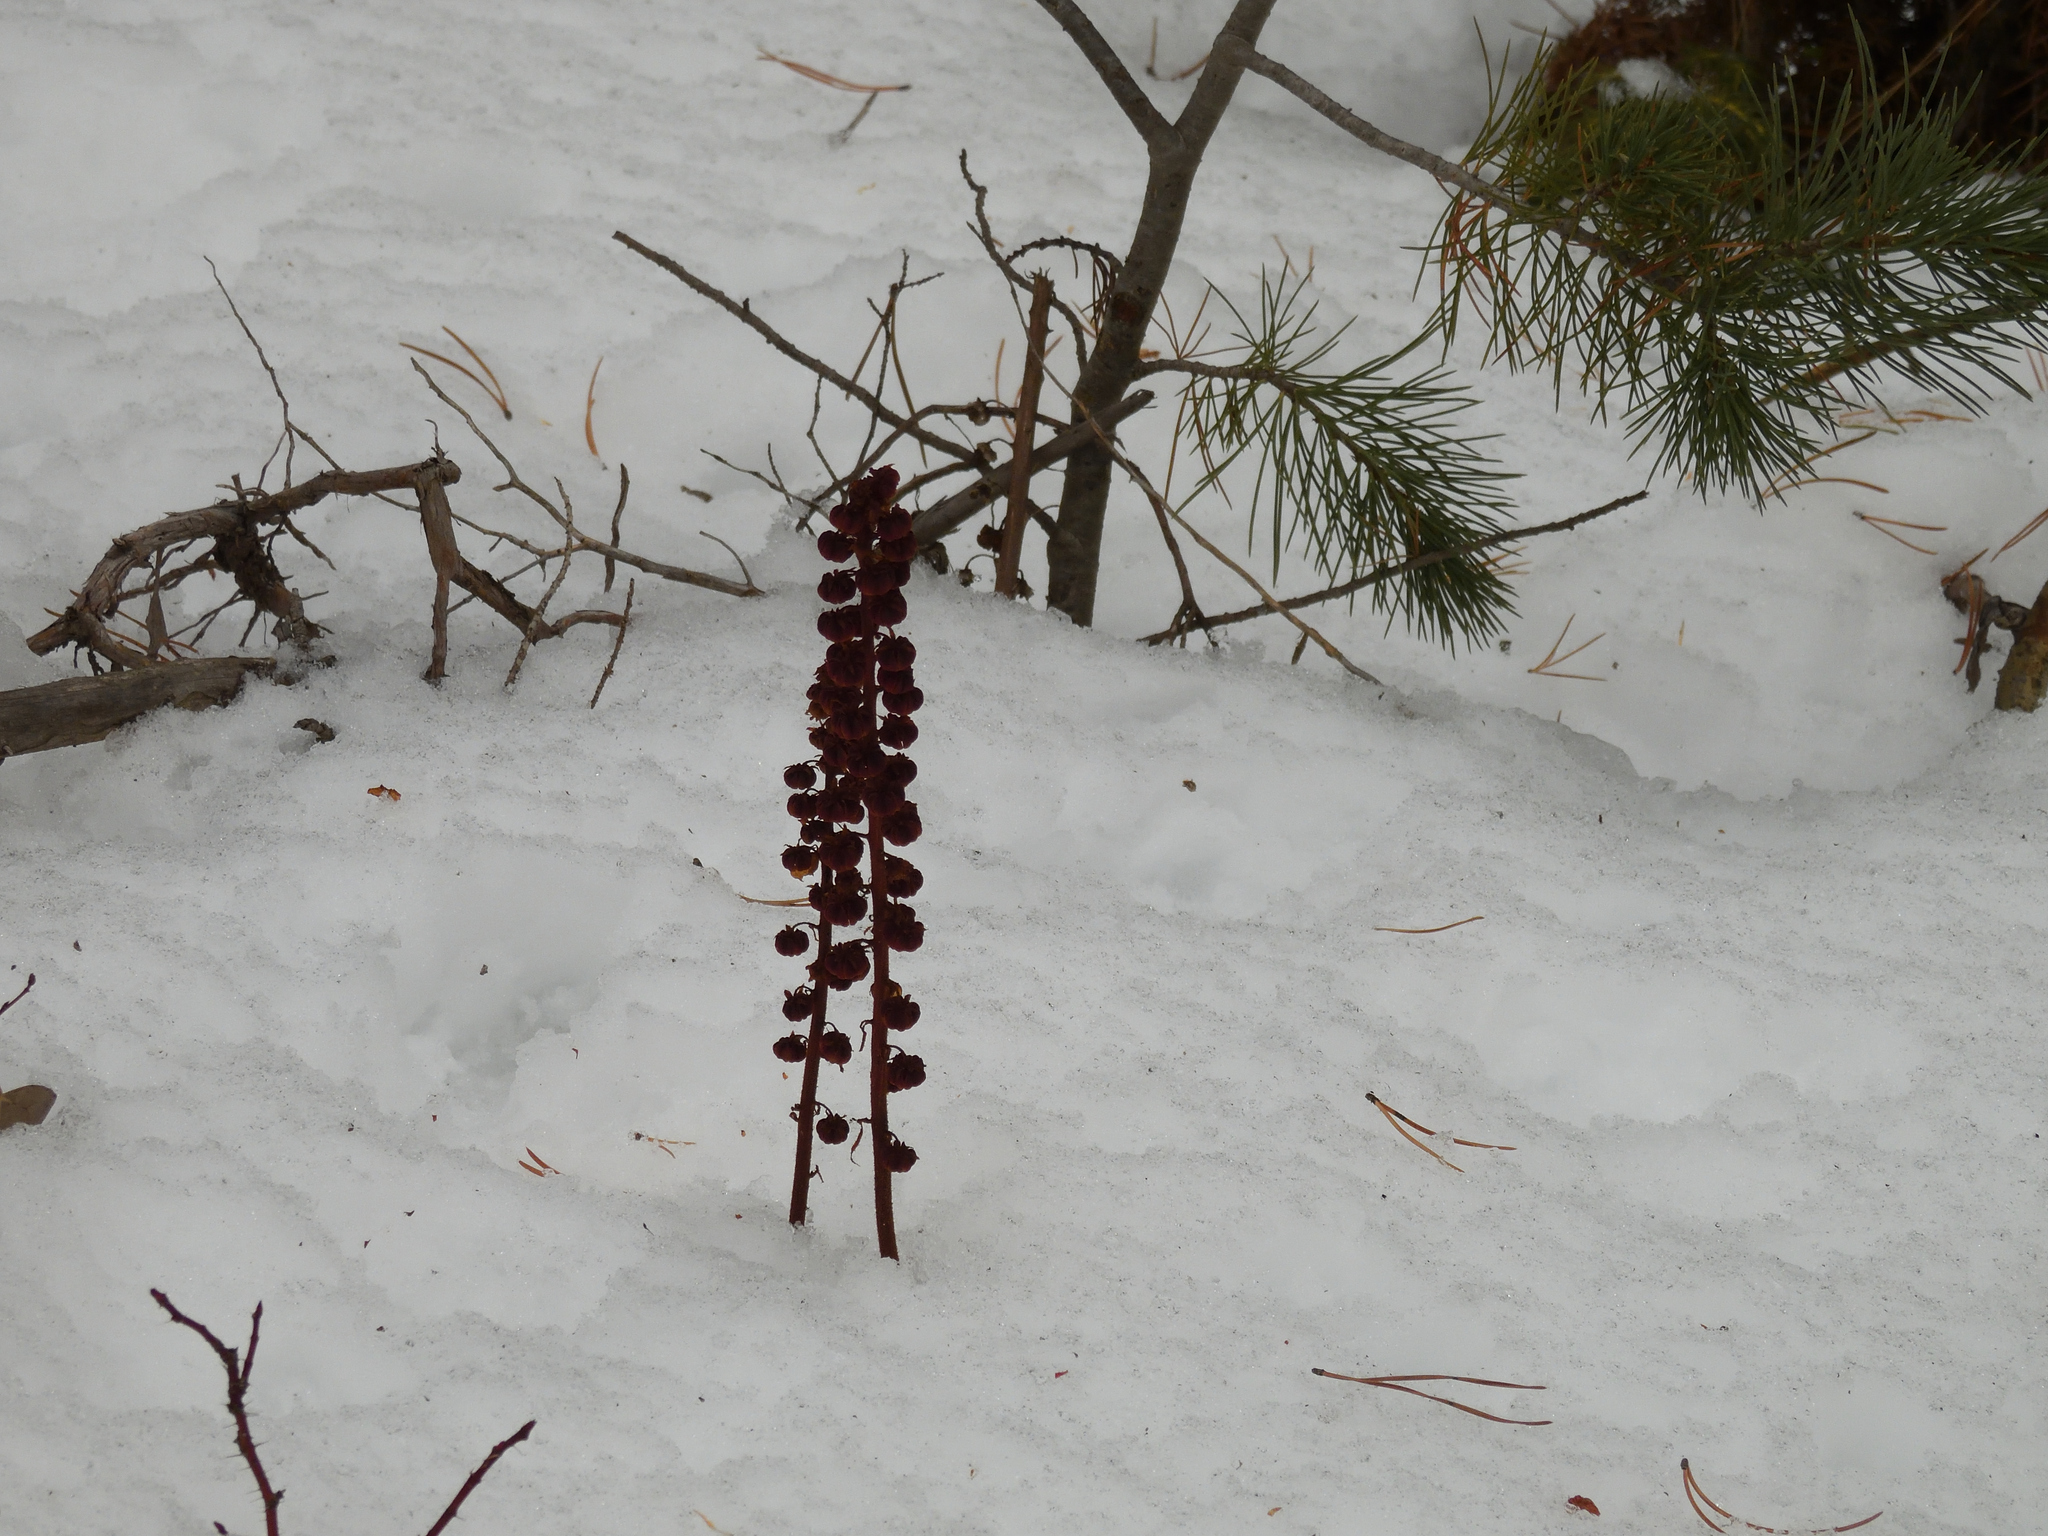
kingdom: Plantae
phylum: Tracheophyta
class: Magnoliopsida
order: Ericales
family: Ericaceae
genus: Pterospora
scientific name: Pterospora andromedea
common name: Giant bird's-nest
